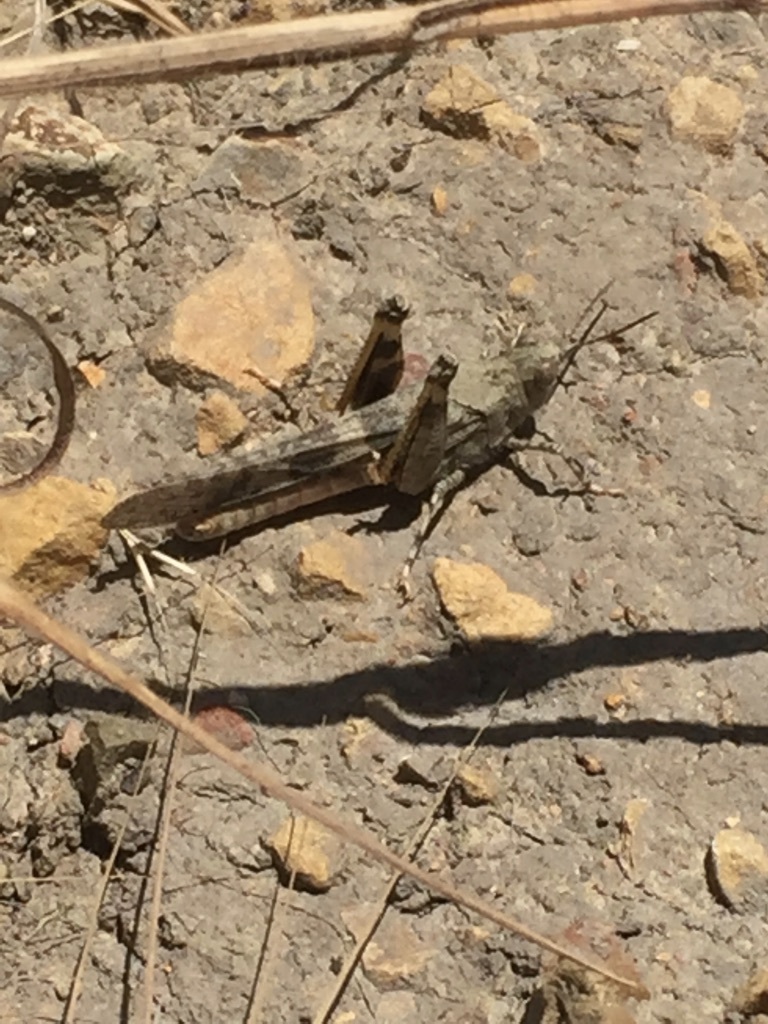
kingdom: Animalia
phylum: Arthropoda
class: Insecta
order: Orthoptera
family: Acrididae
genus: Trimerotropis
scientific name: Trimerotropis pallidipennis
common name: Pallid-winged grasshopper
